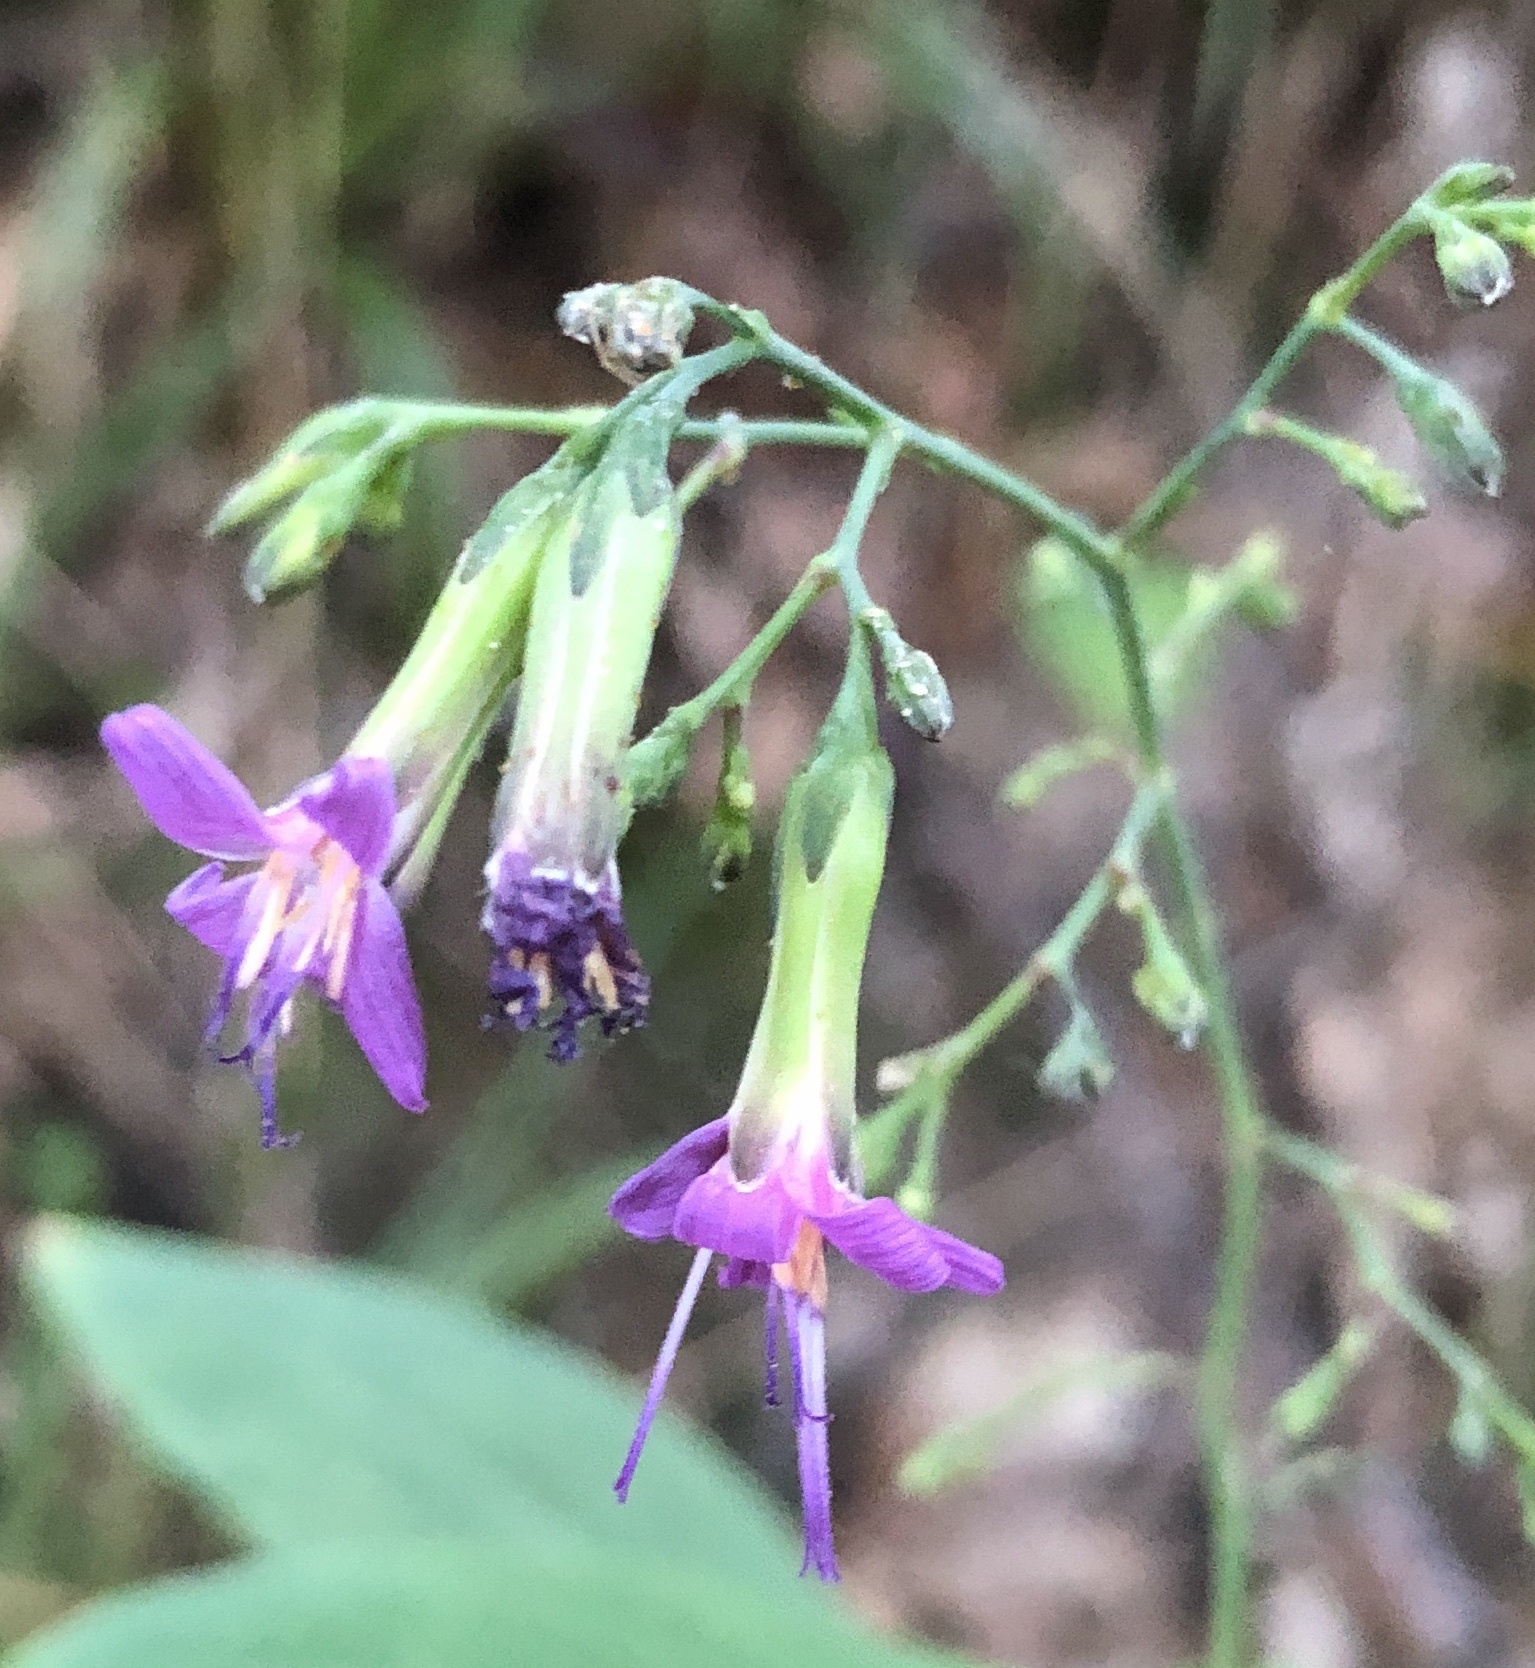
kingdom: Plantae
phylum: Tracheophyta
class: Magnoliopsida
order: Asterales
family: Asteraceae
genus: Prenanthes
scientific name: Prenanthes purpurea
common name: Purple lettuce
